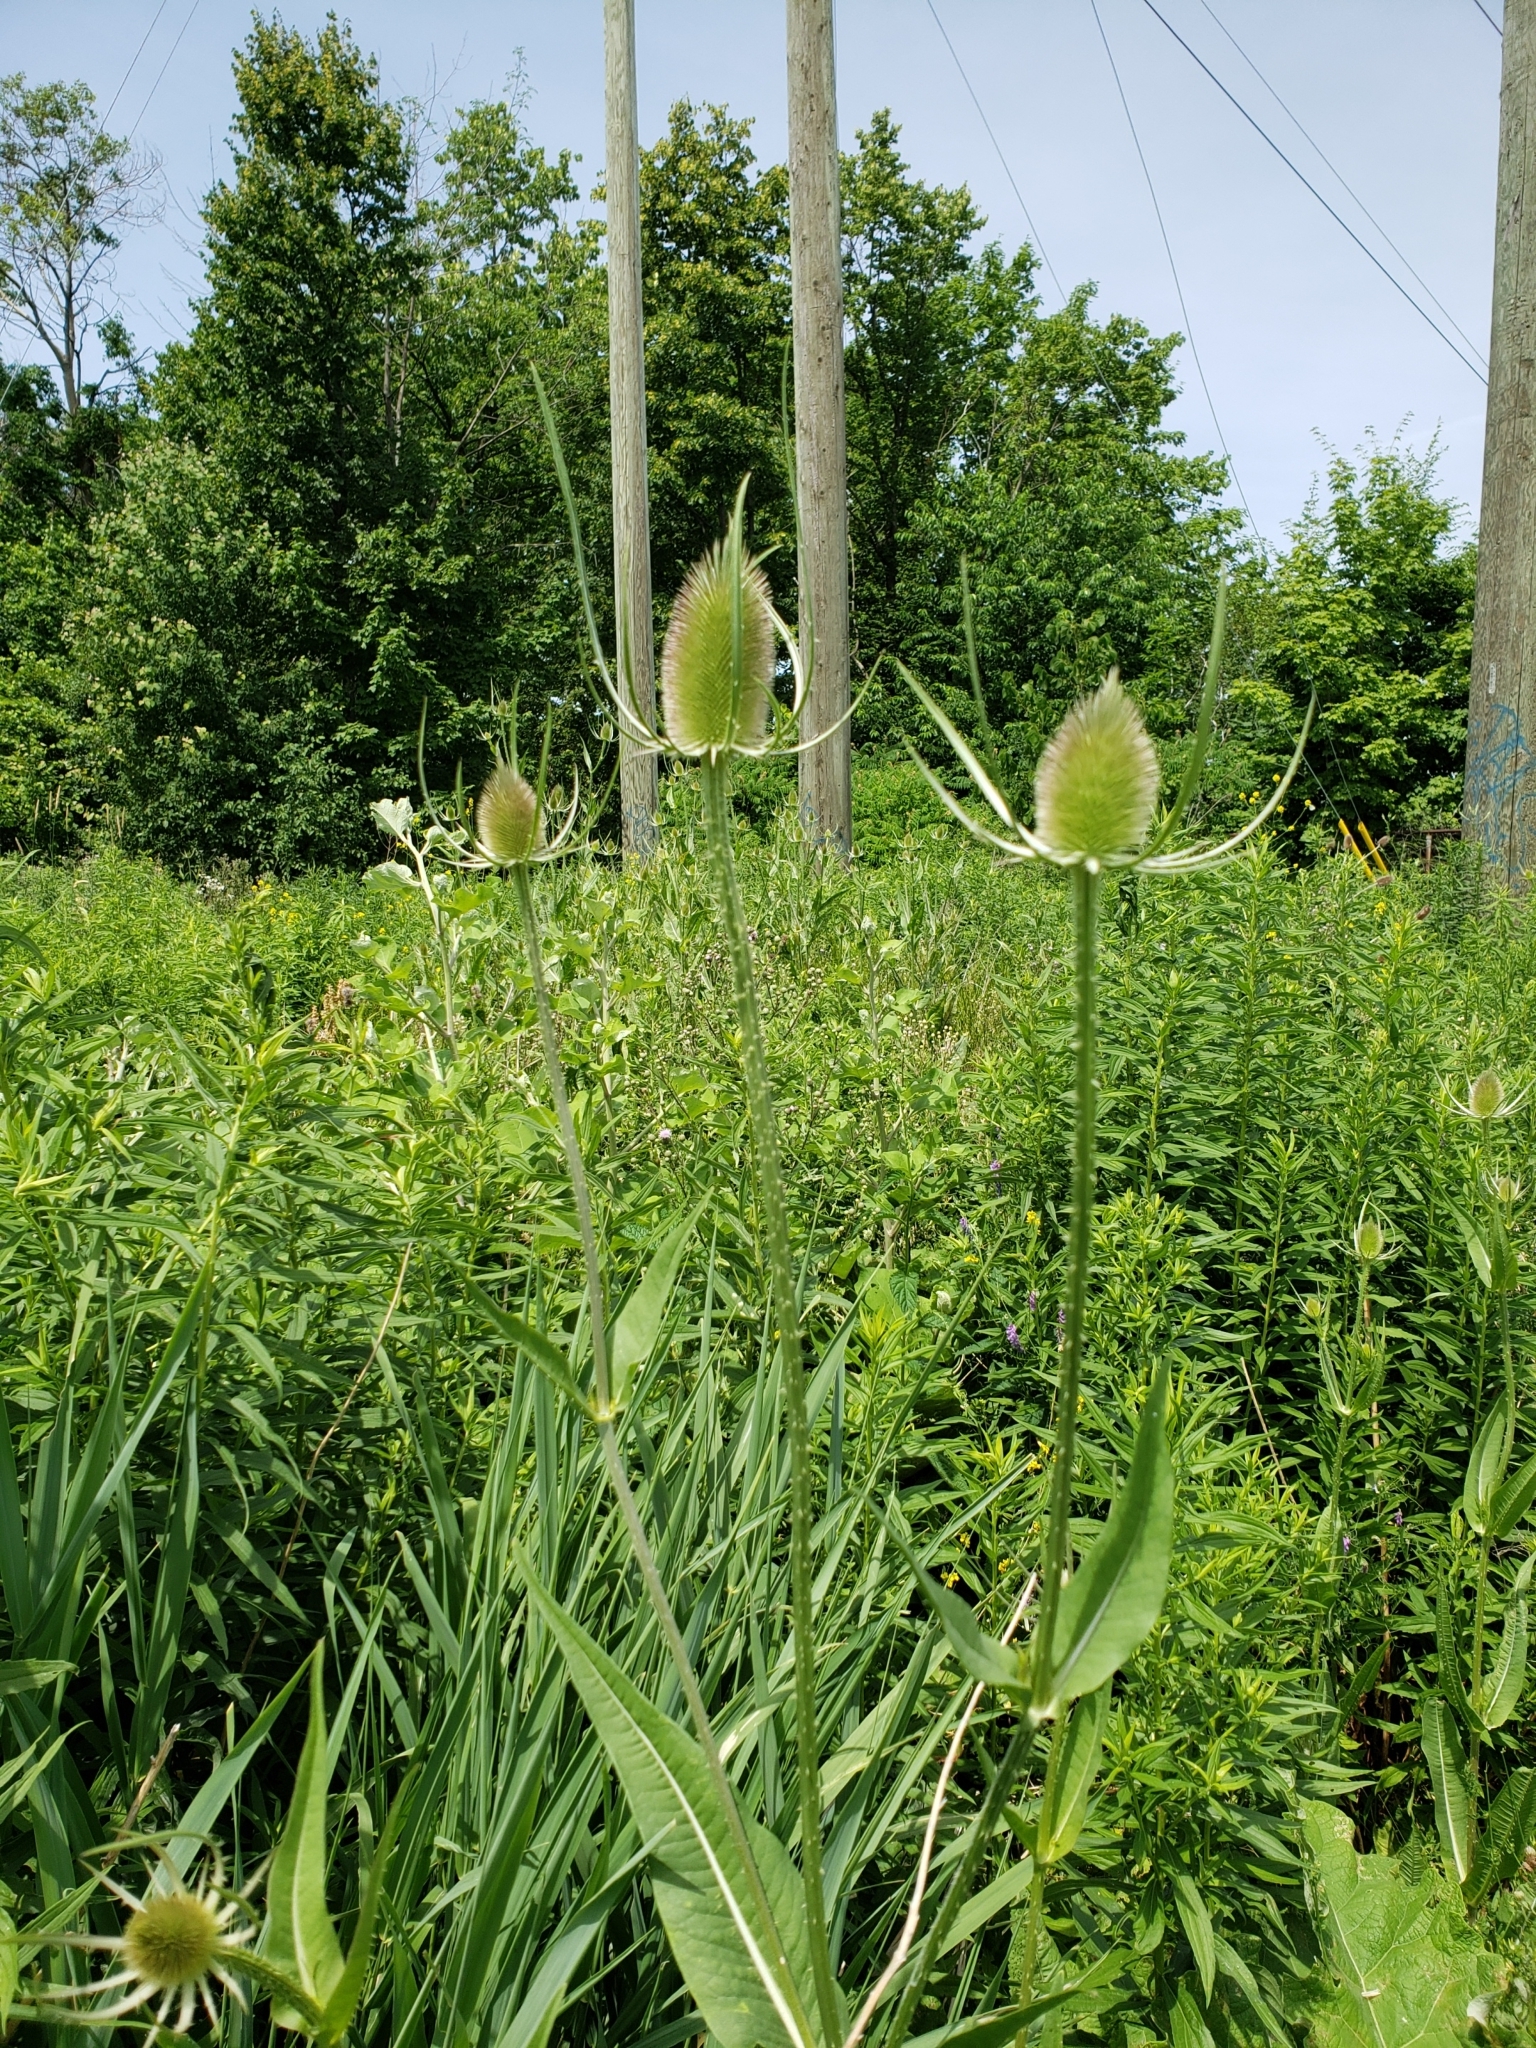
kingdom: Plantae
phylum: Tracheophyta
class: Magnoliopsida
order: Dipsacales
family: Caprifoliaceae
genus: Dipsacus
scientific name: Dipsacus fullonum
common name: Teasel
